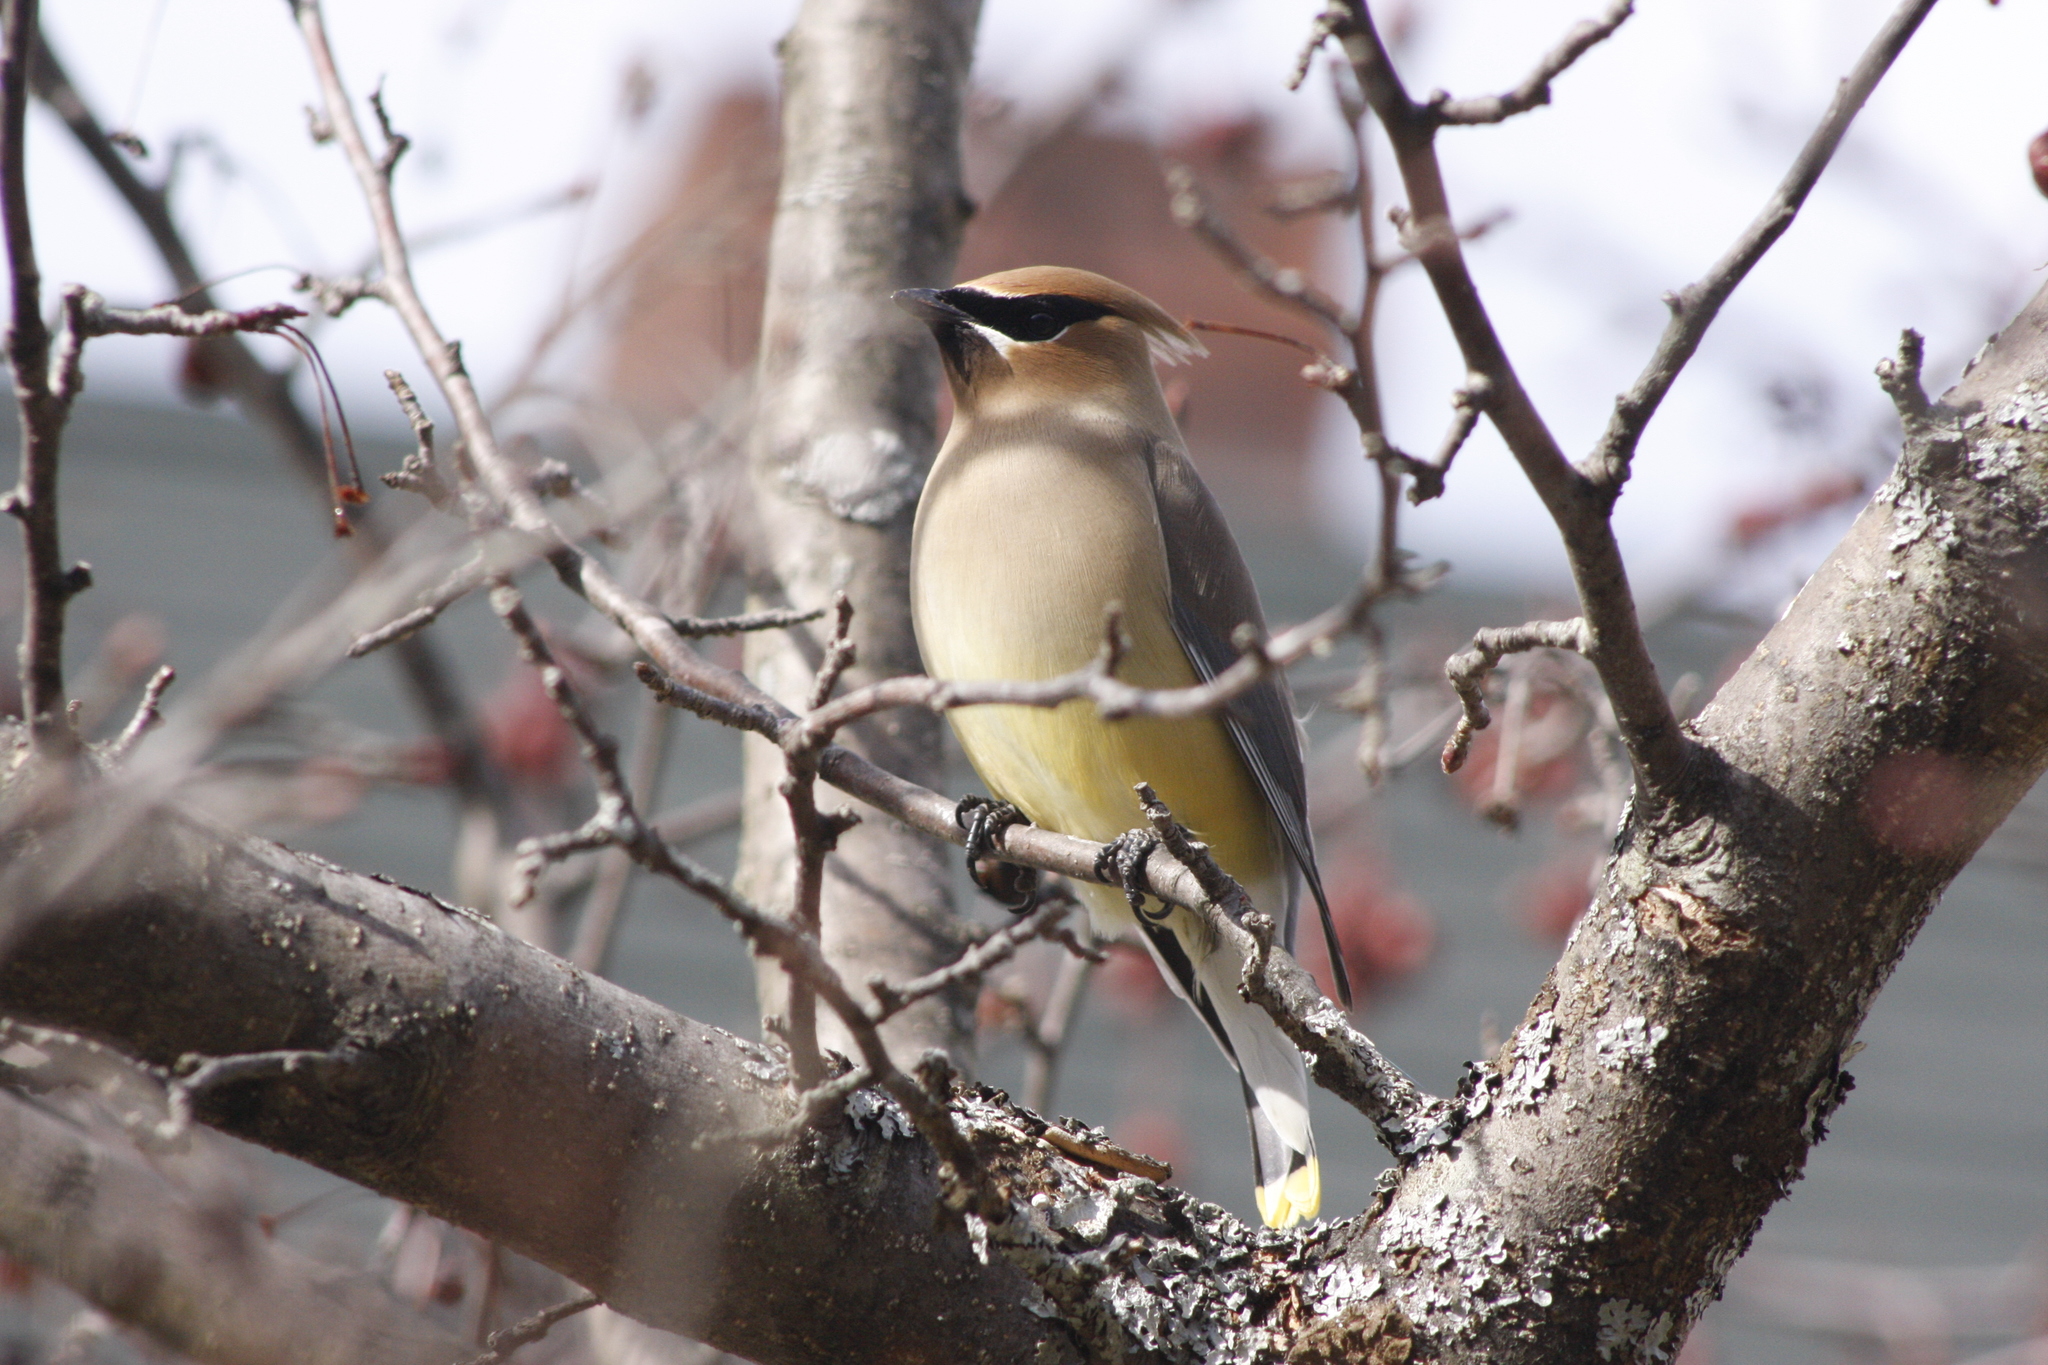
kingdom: Animalia
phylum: Chordata
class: Aves
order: Passeriformes
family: Bombycillidae
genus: Bombycilla
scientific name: Bombycilla cedrorum
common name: Cedar waxwing
